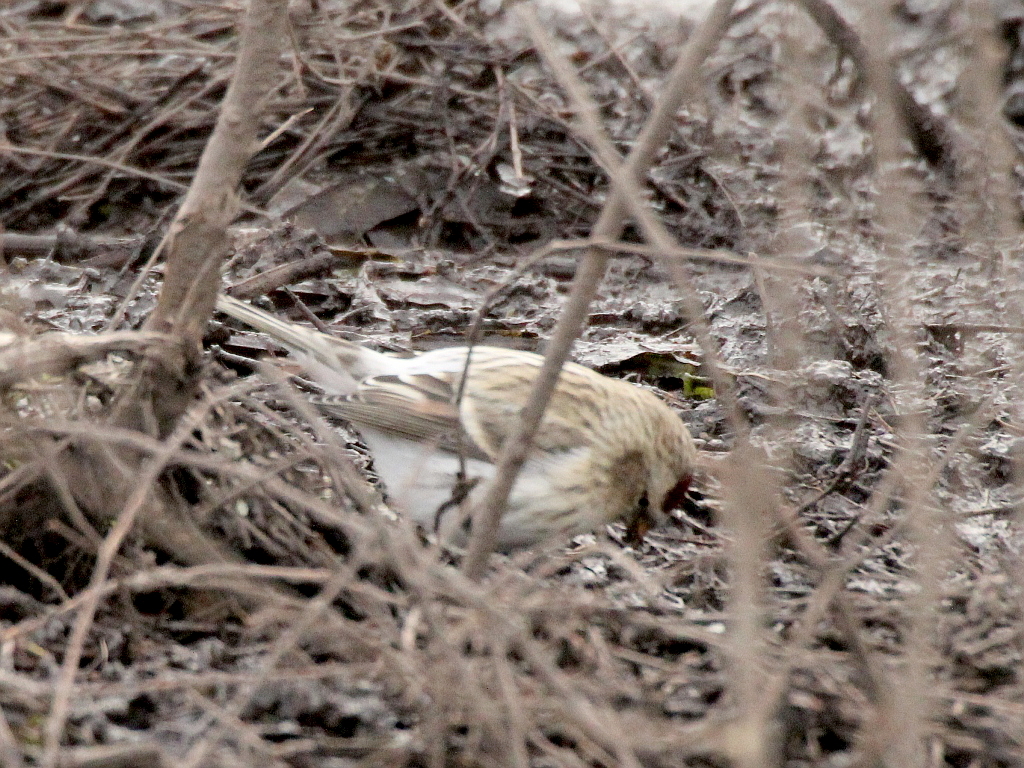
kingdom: Animalia
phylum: Chordata
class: Aves
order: Passeriformes
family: Fringillidae
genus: Acanthis
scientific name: Acanthis hornemanni
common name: Arctic redpoll
